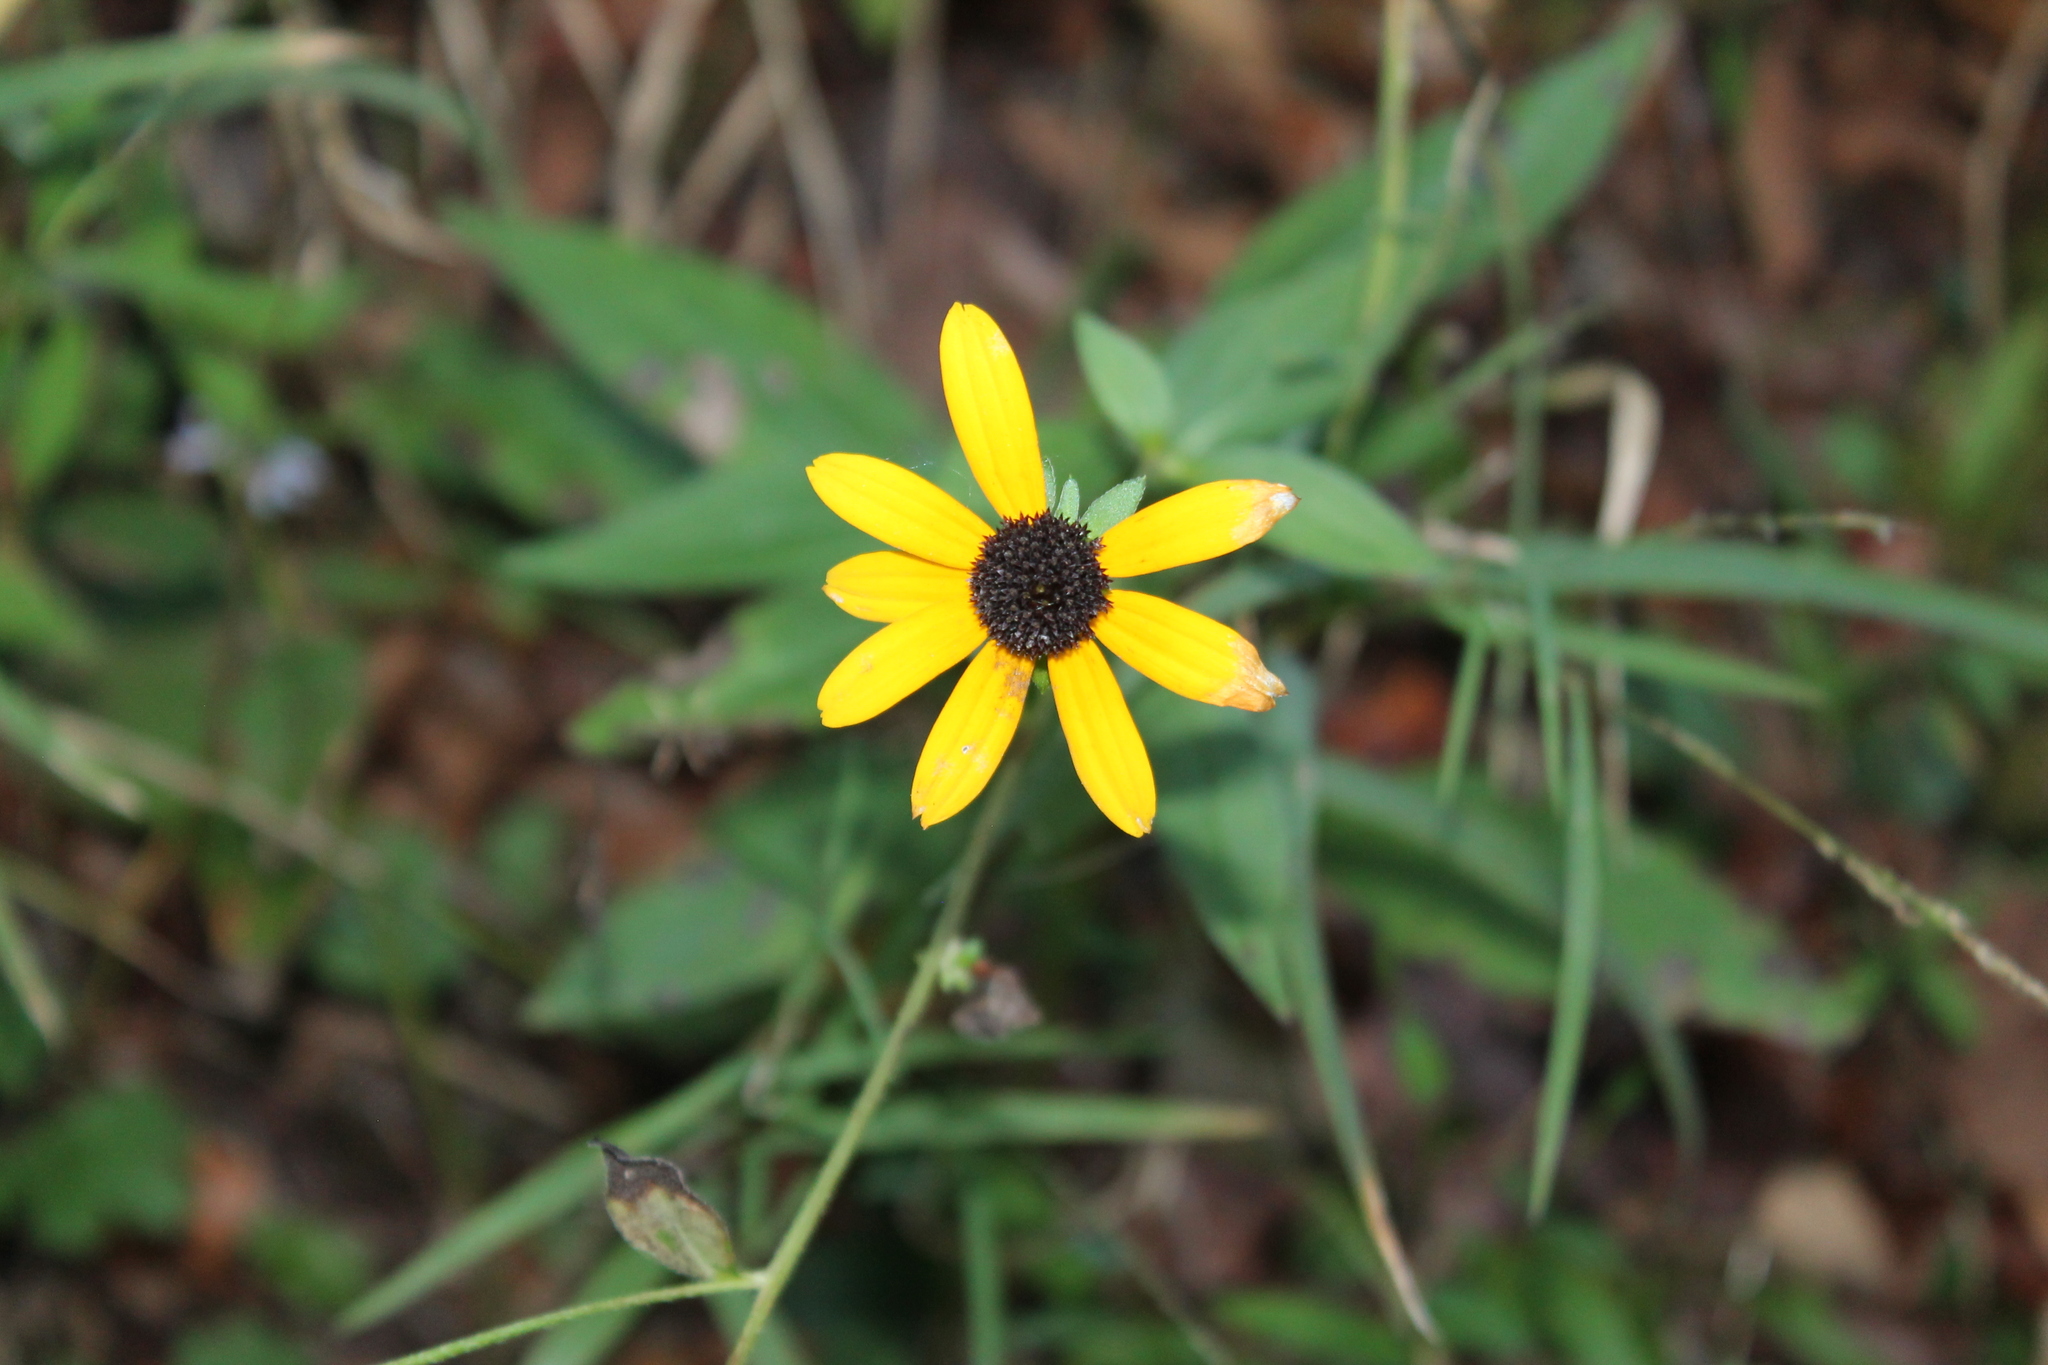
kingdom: Plantae
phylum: Tracheophyta
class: Magnoliopsida
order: Asterales
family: Asteraceae
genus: Rudbeckia
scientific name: Rudbeckia palustris
